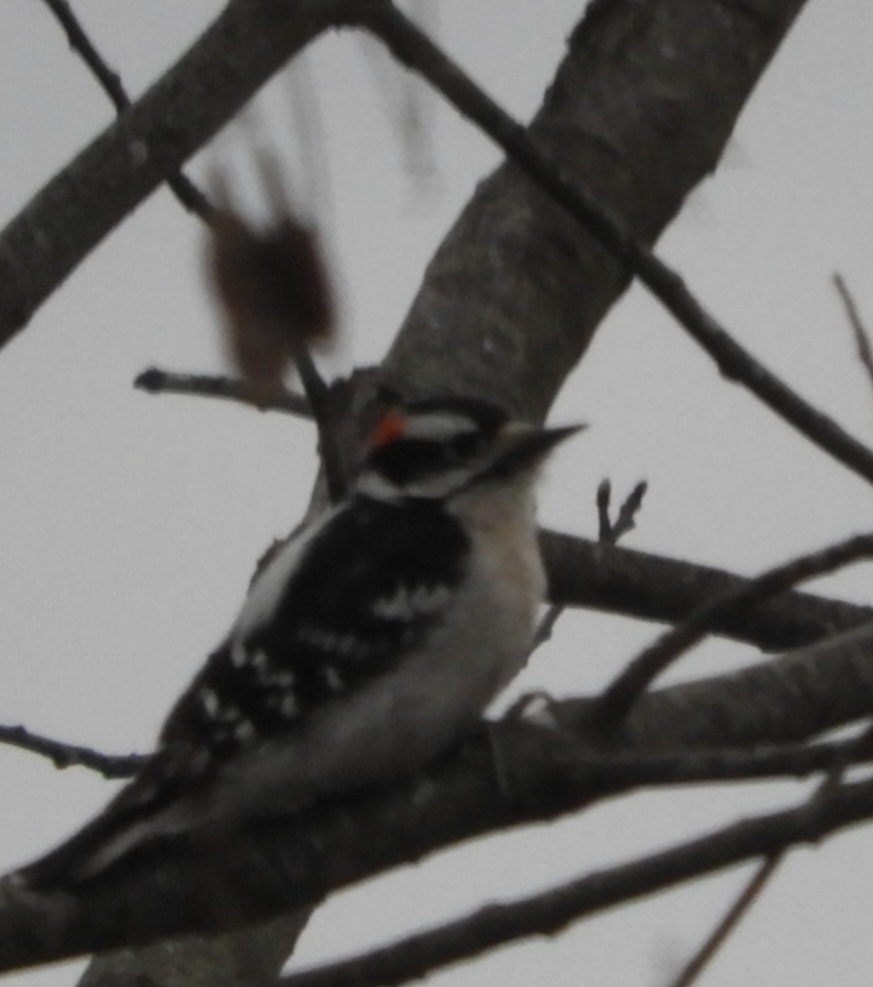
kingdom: Animalia
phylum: Chordata
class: Aves
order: Piciformes
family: Picidae
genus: Dryobates
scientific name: Dryobates pubescens
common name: Downy woodpecker
